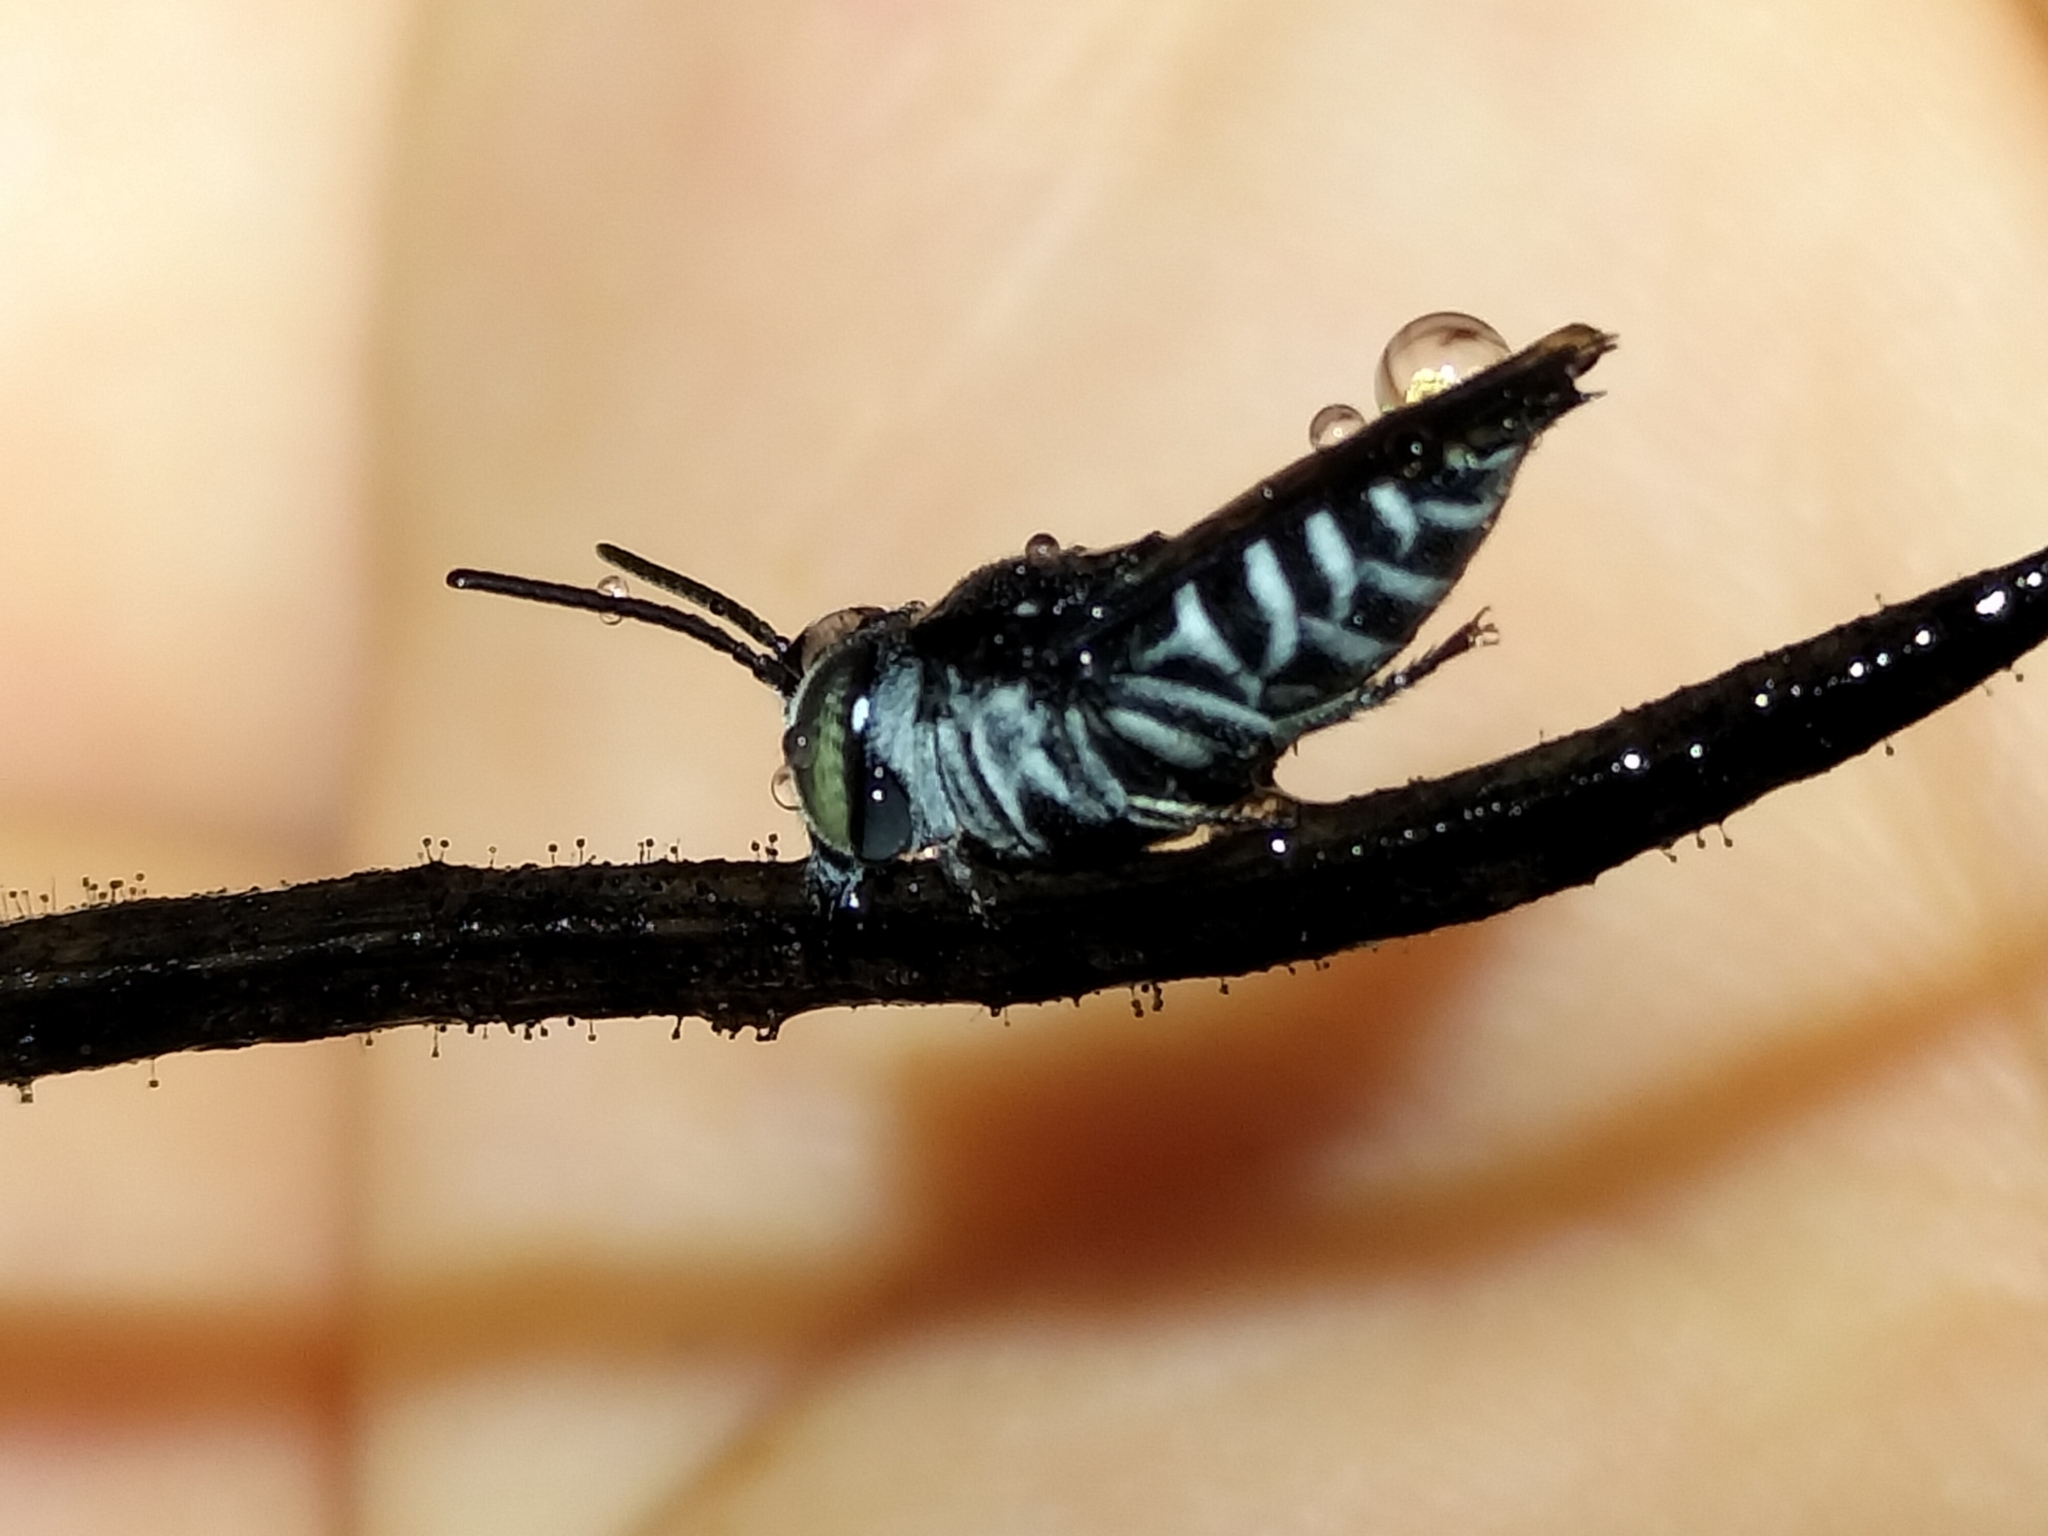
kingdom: Animalia
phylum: Arthropoda
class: Insecta
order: Hymenoptera
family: Megachilidae
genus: Coelioxys
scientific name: Coelioxys albolineatus
